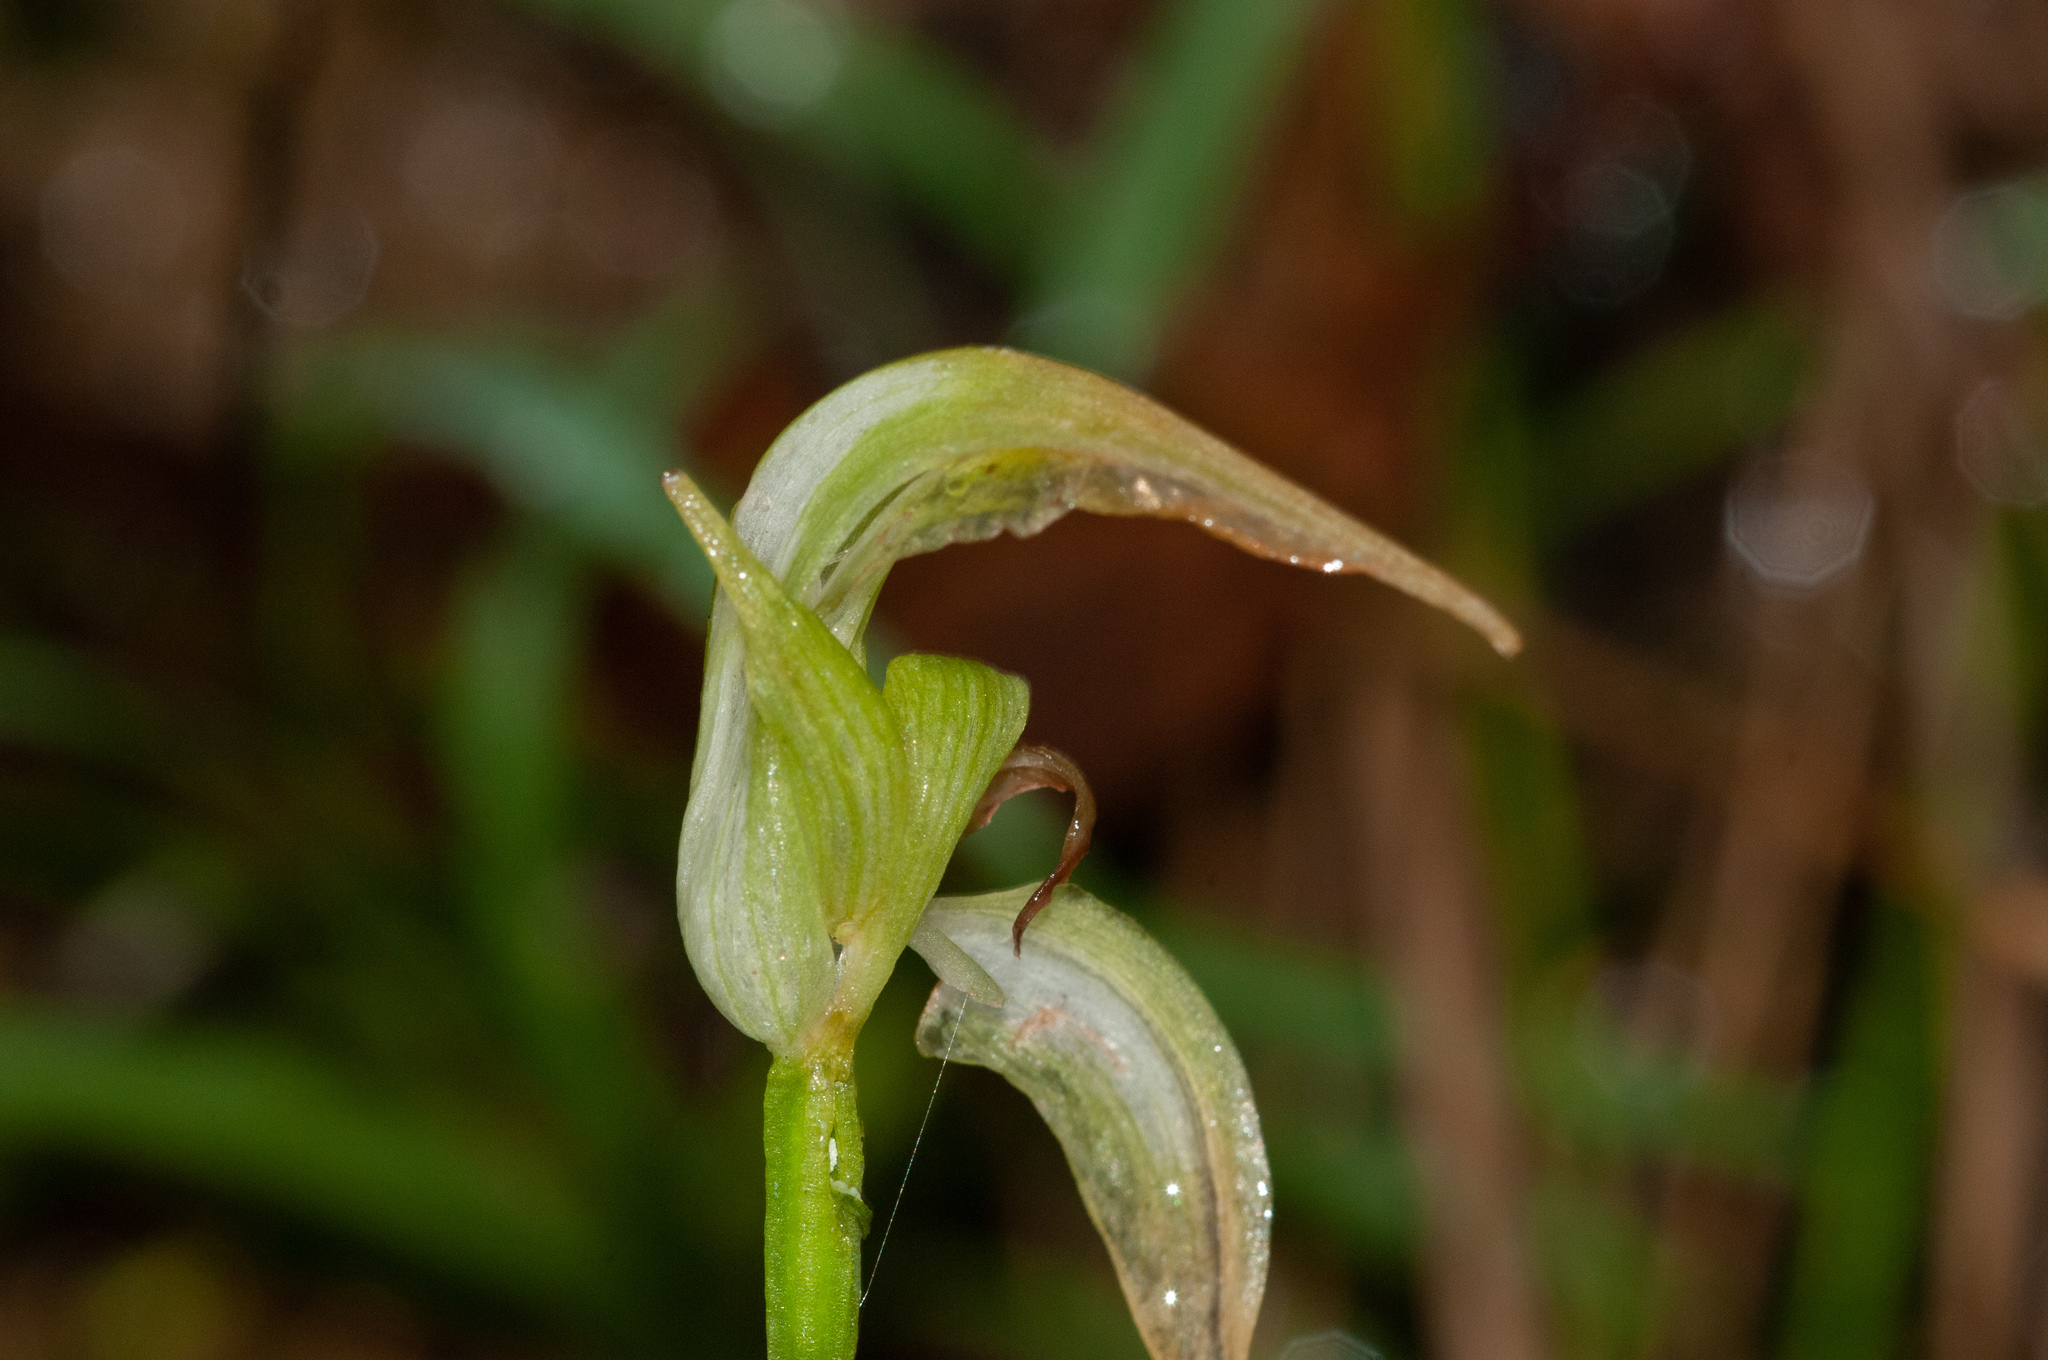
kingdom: Plantae
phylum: Tracheophyta
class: Liliopsida
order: Asparagales
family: Orchidaceae
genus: Pterostylis
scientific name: Pterostylis acuminata
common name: Pointed greenhood
